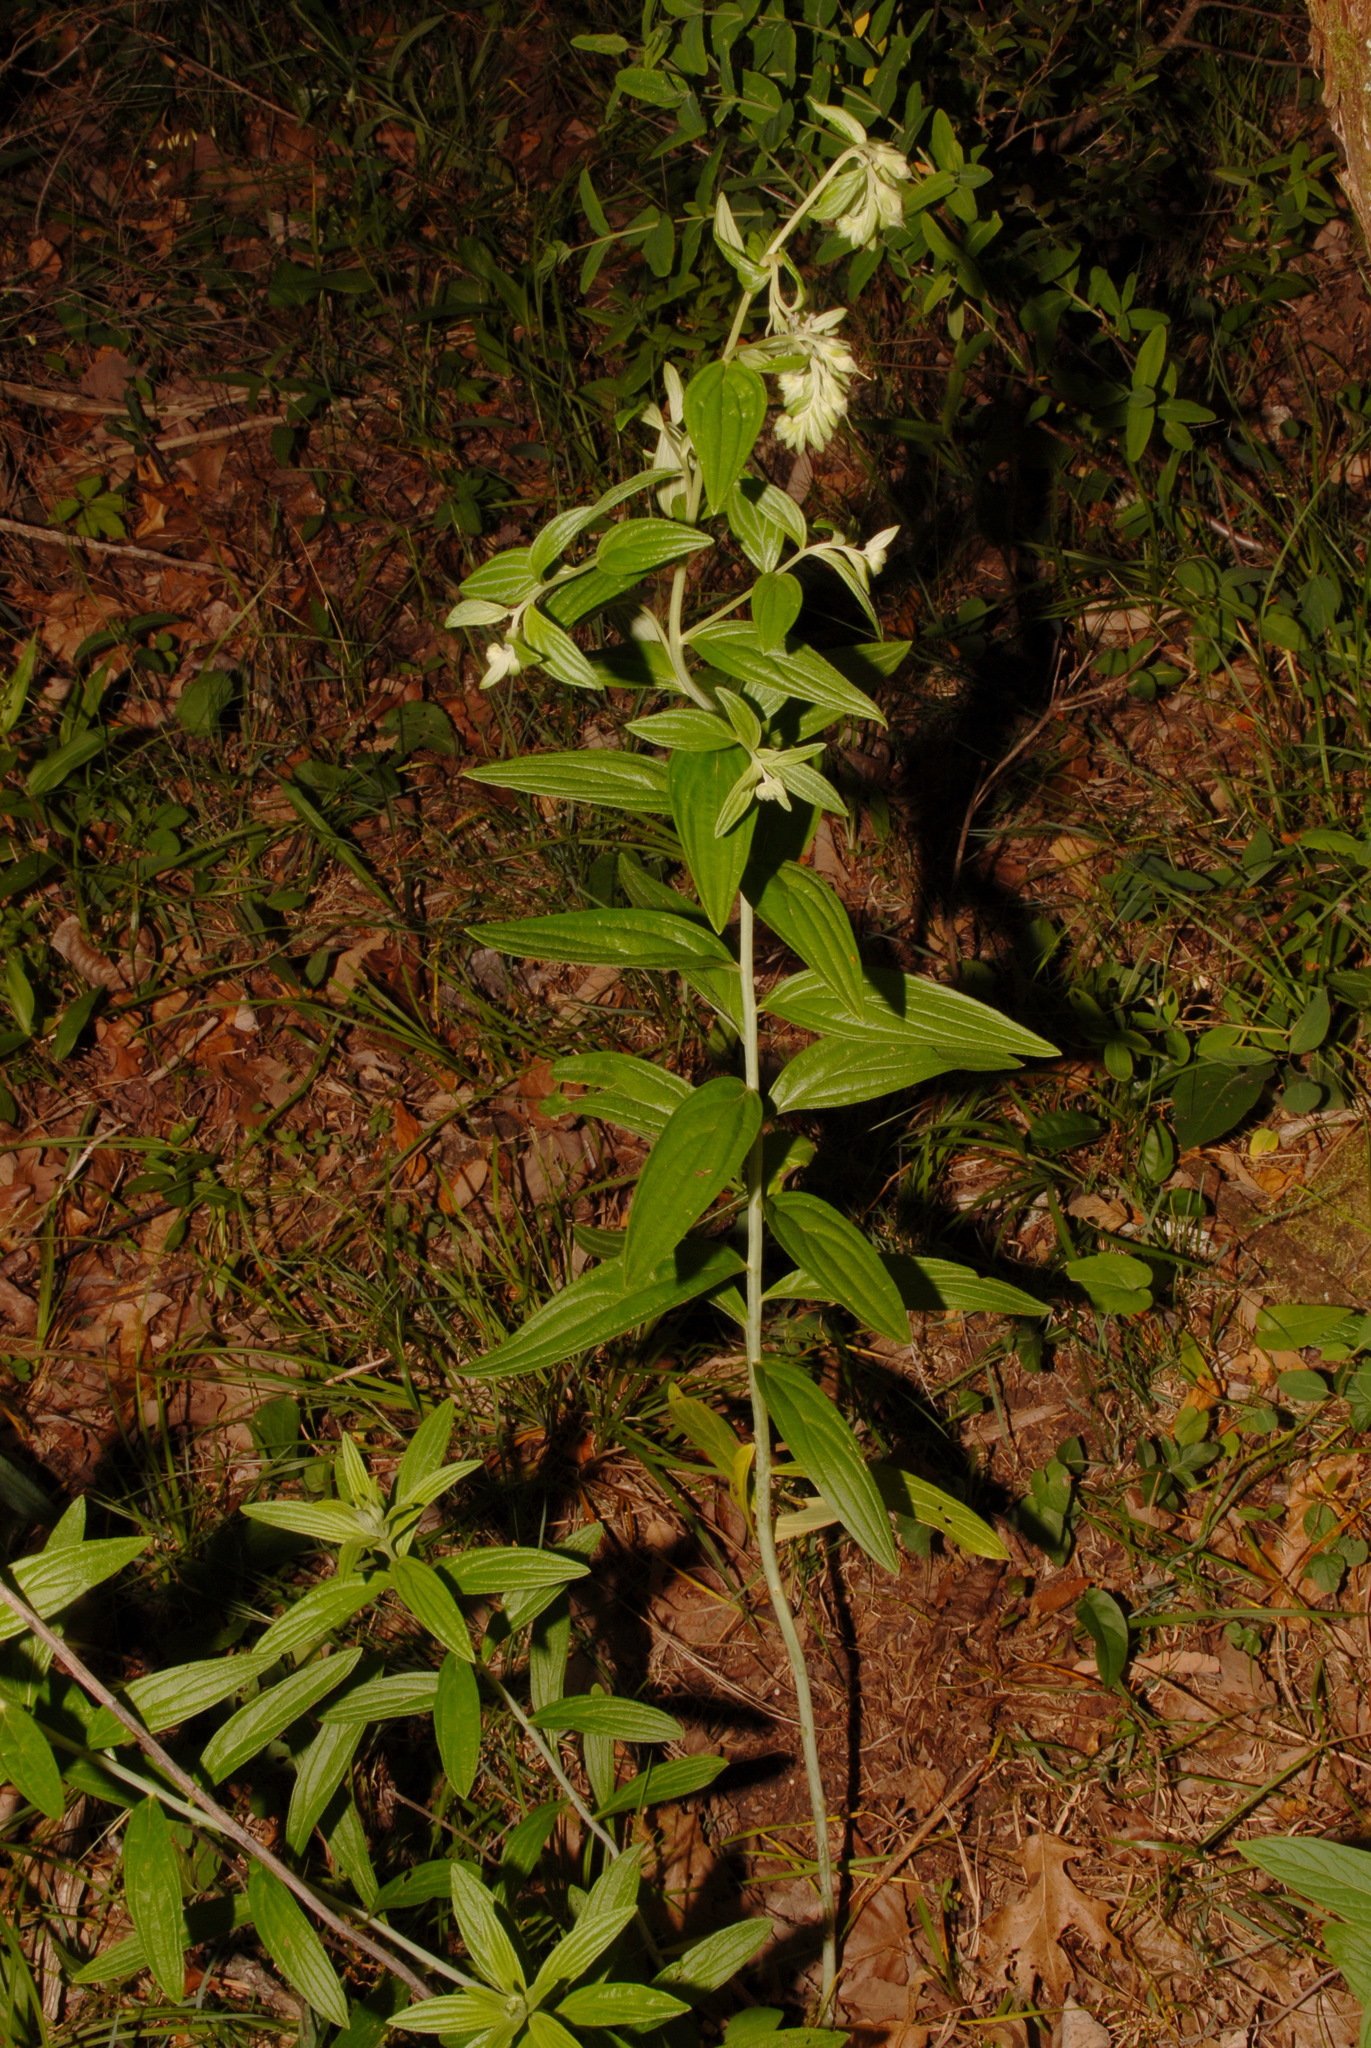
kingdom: Plantae
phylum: Tracheophyta
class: Magnoliopsida
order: Boraginales
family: Boraginaceae
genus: Lithospermum
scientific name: Lithospermum subsetosum
